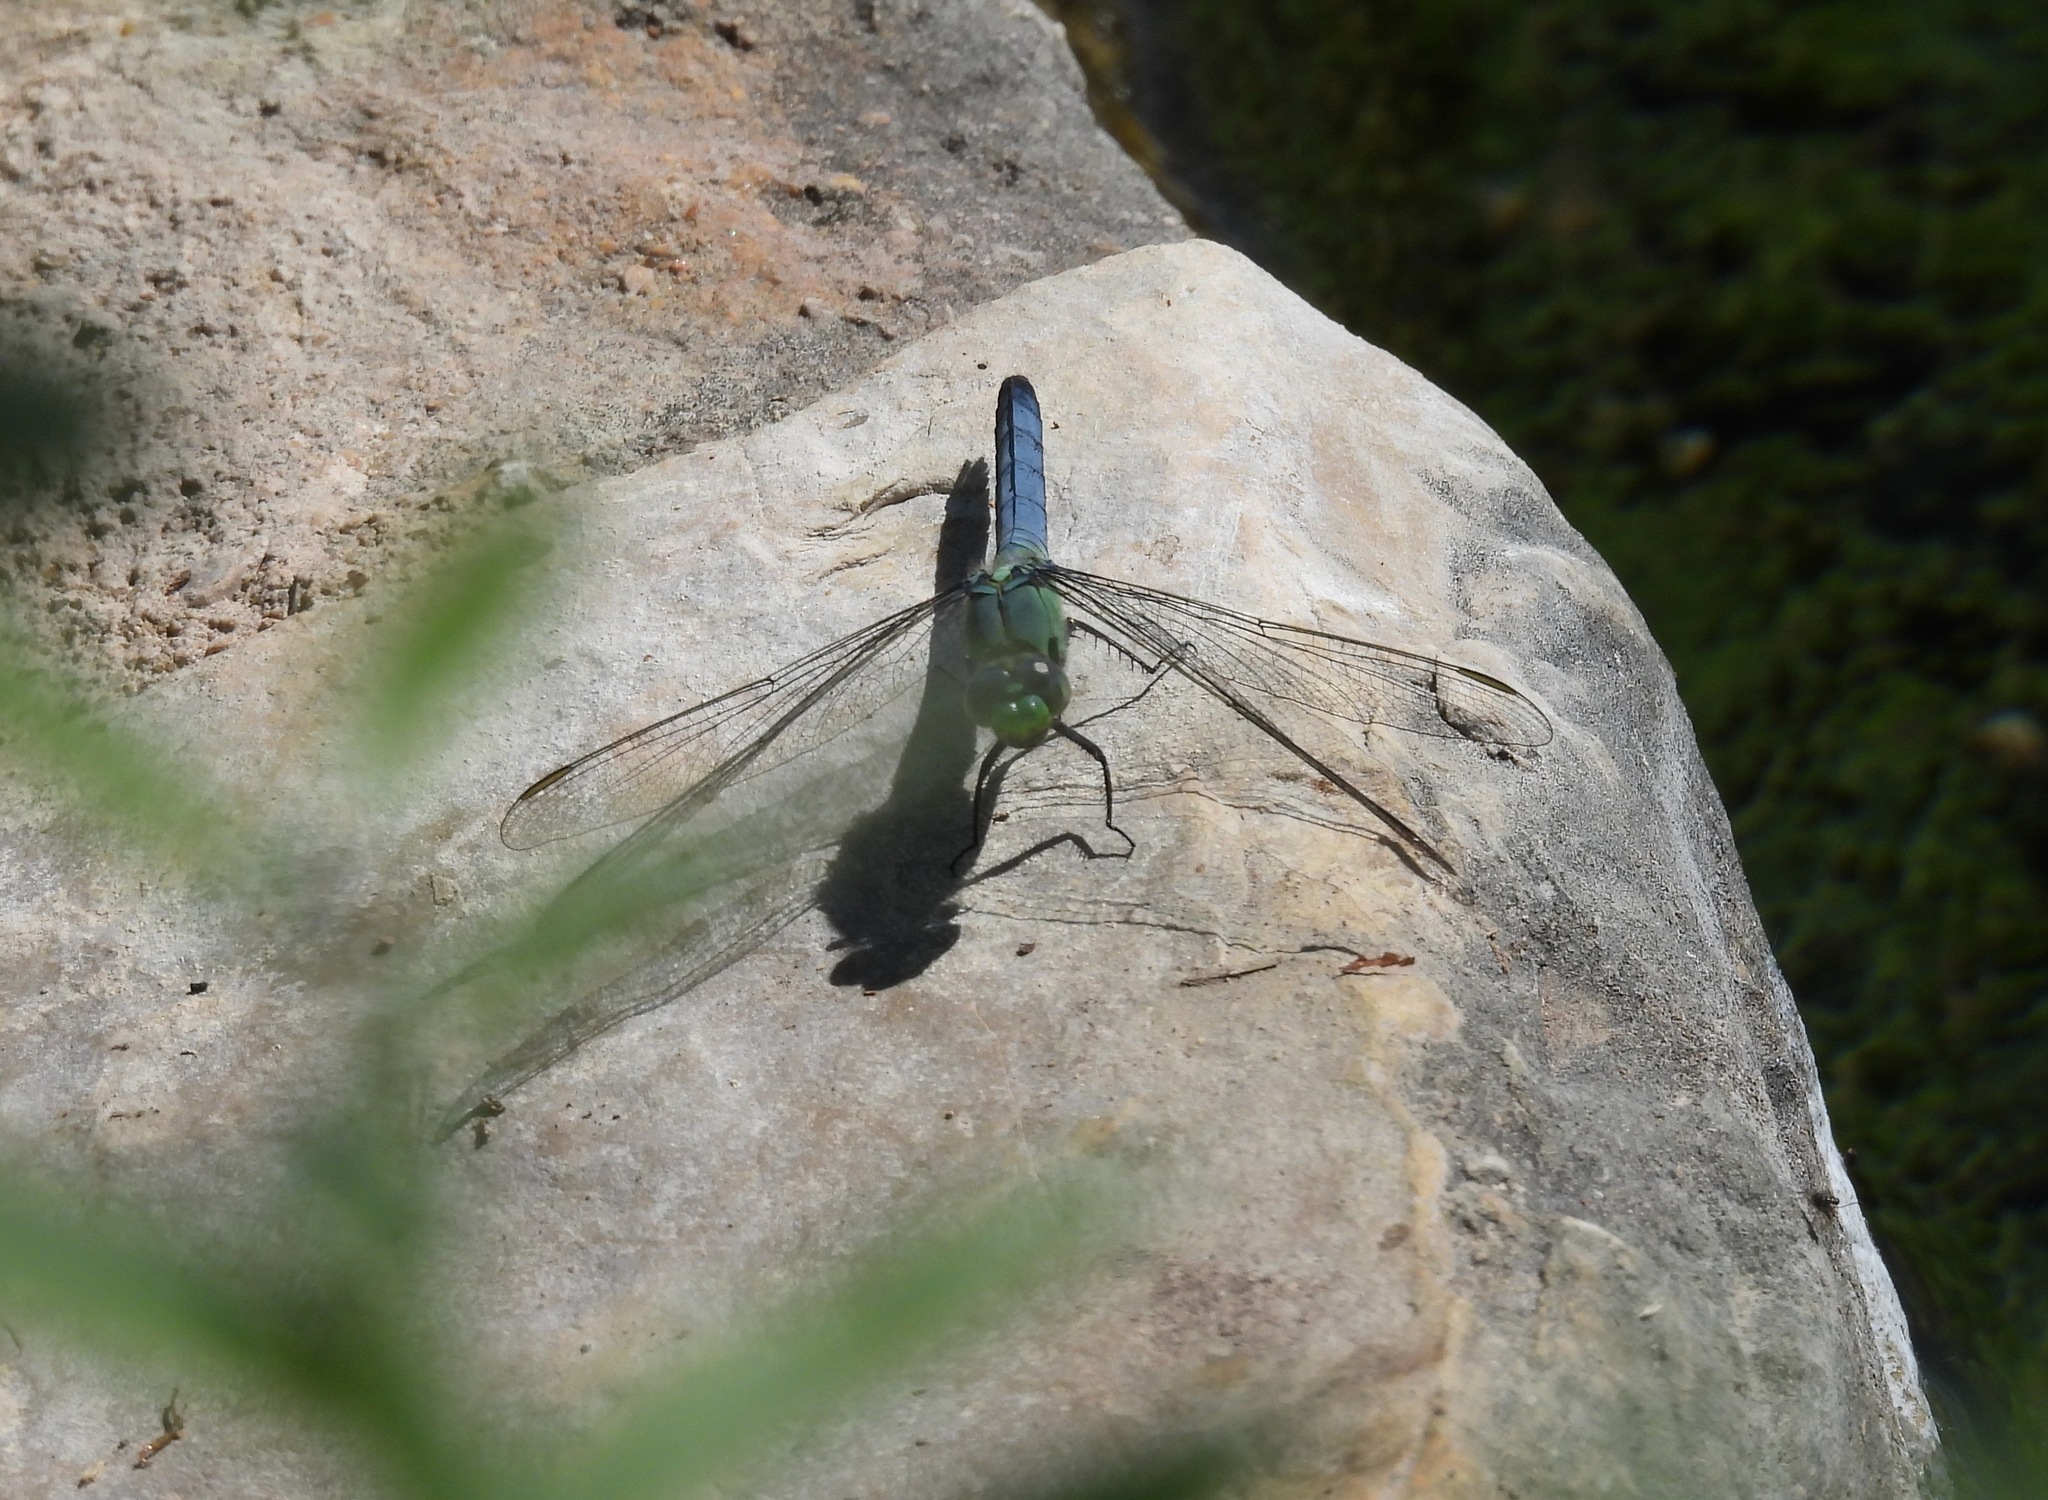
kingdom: Animalia
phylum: Arthropoda
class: Insecta
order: Odonata
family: Libellulidae
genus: Erythemis
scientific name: Erythemis simplicicollis
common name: Eastern pondhawk
